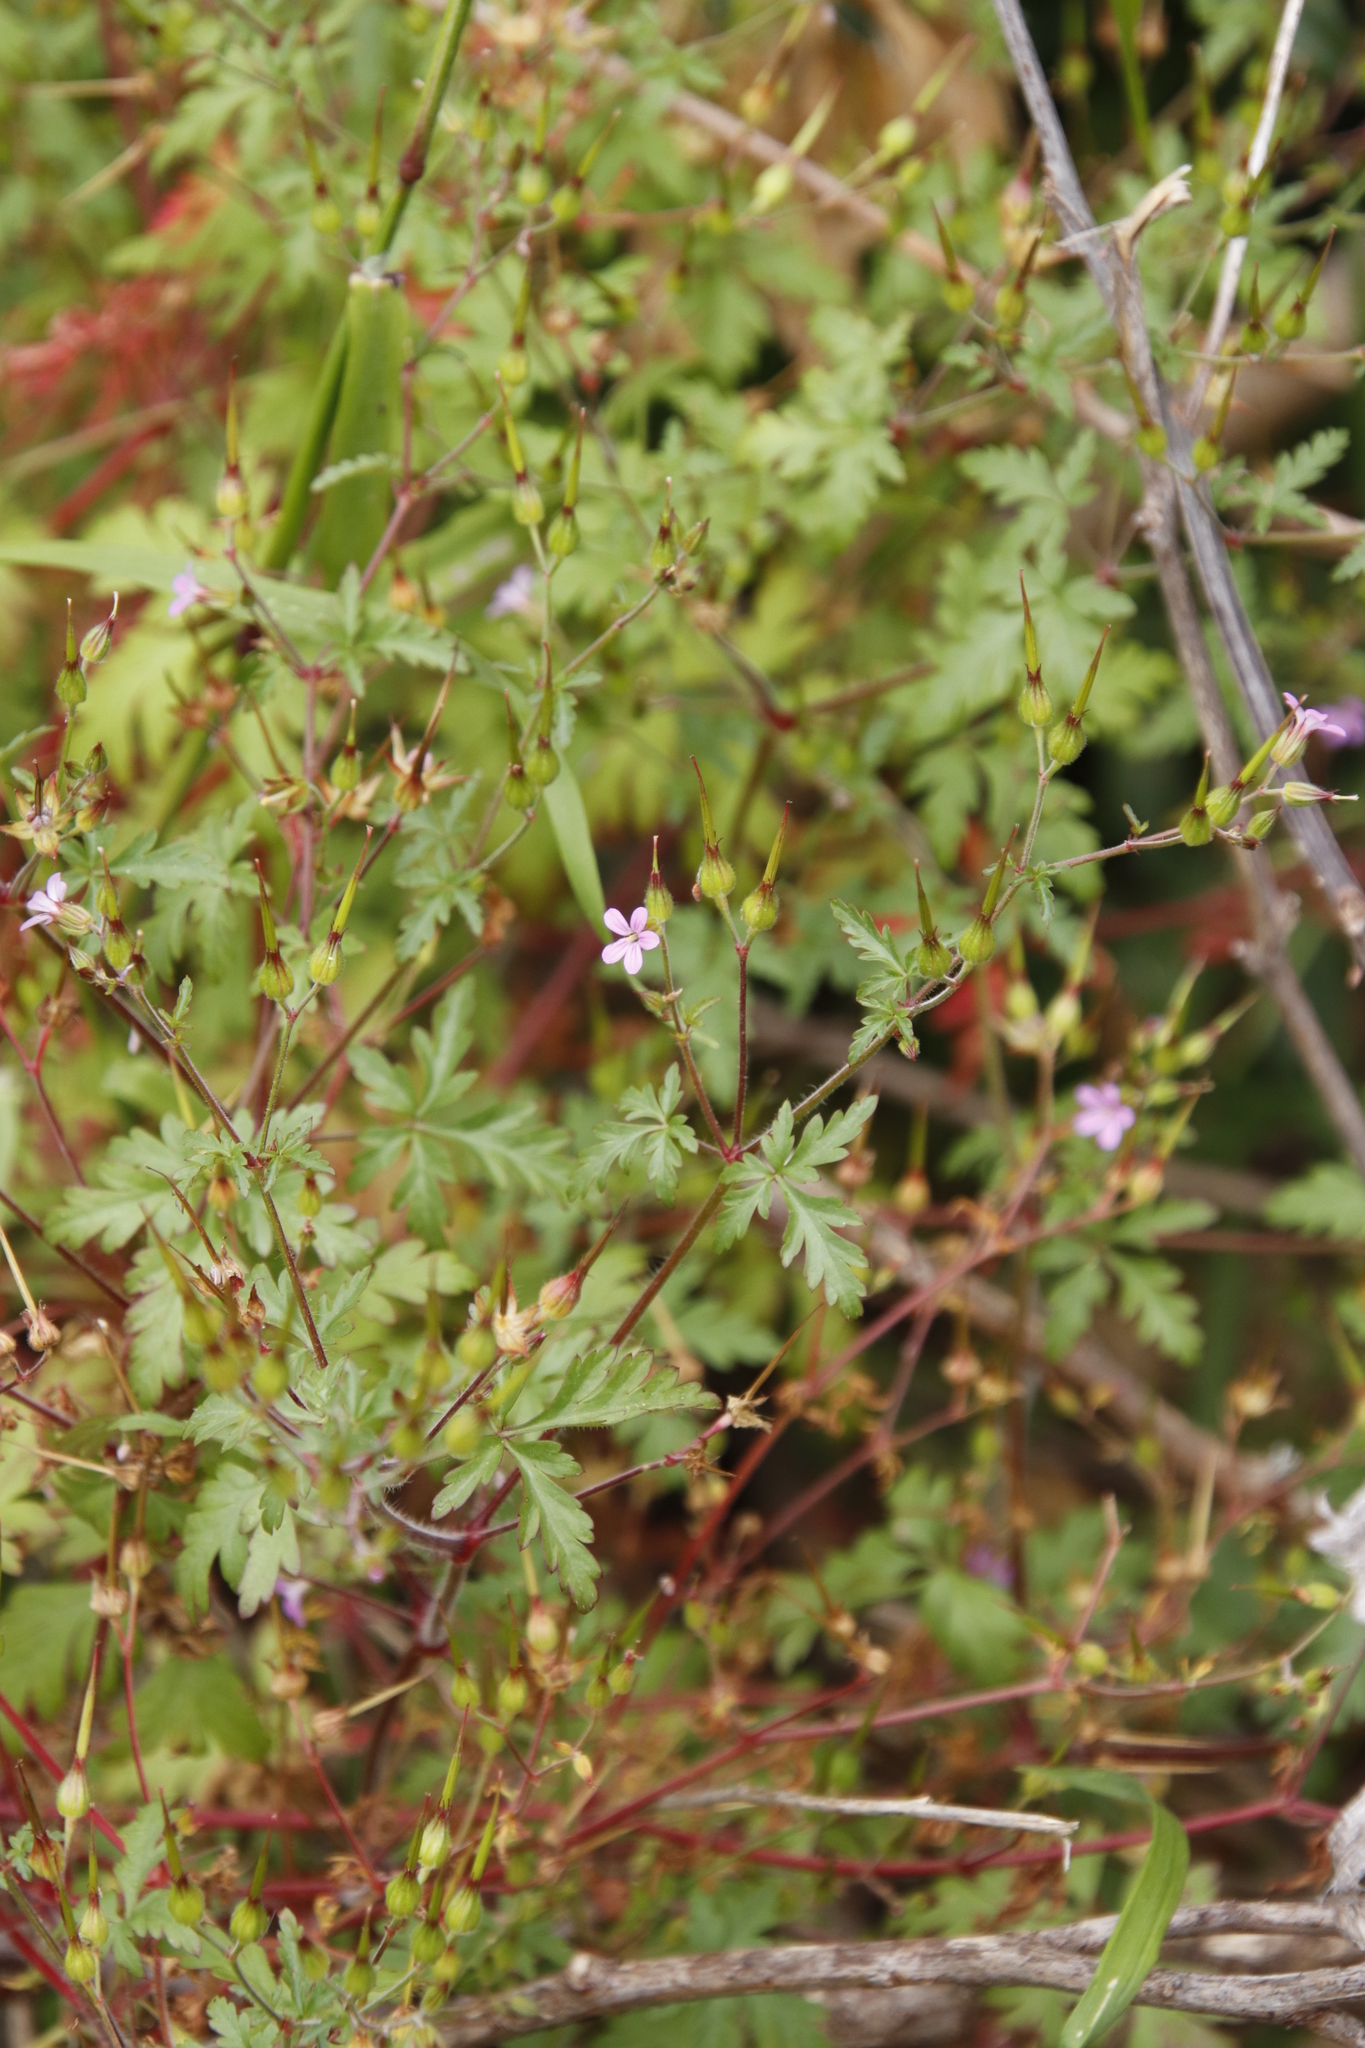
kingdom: Plantae
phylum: Tracheophyta
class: Magnoliopsida
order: Geraniales
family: Geraniaceae
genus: Geranium
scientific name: Geranium purpureum
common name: Little-robin
